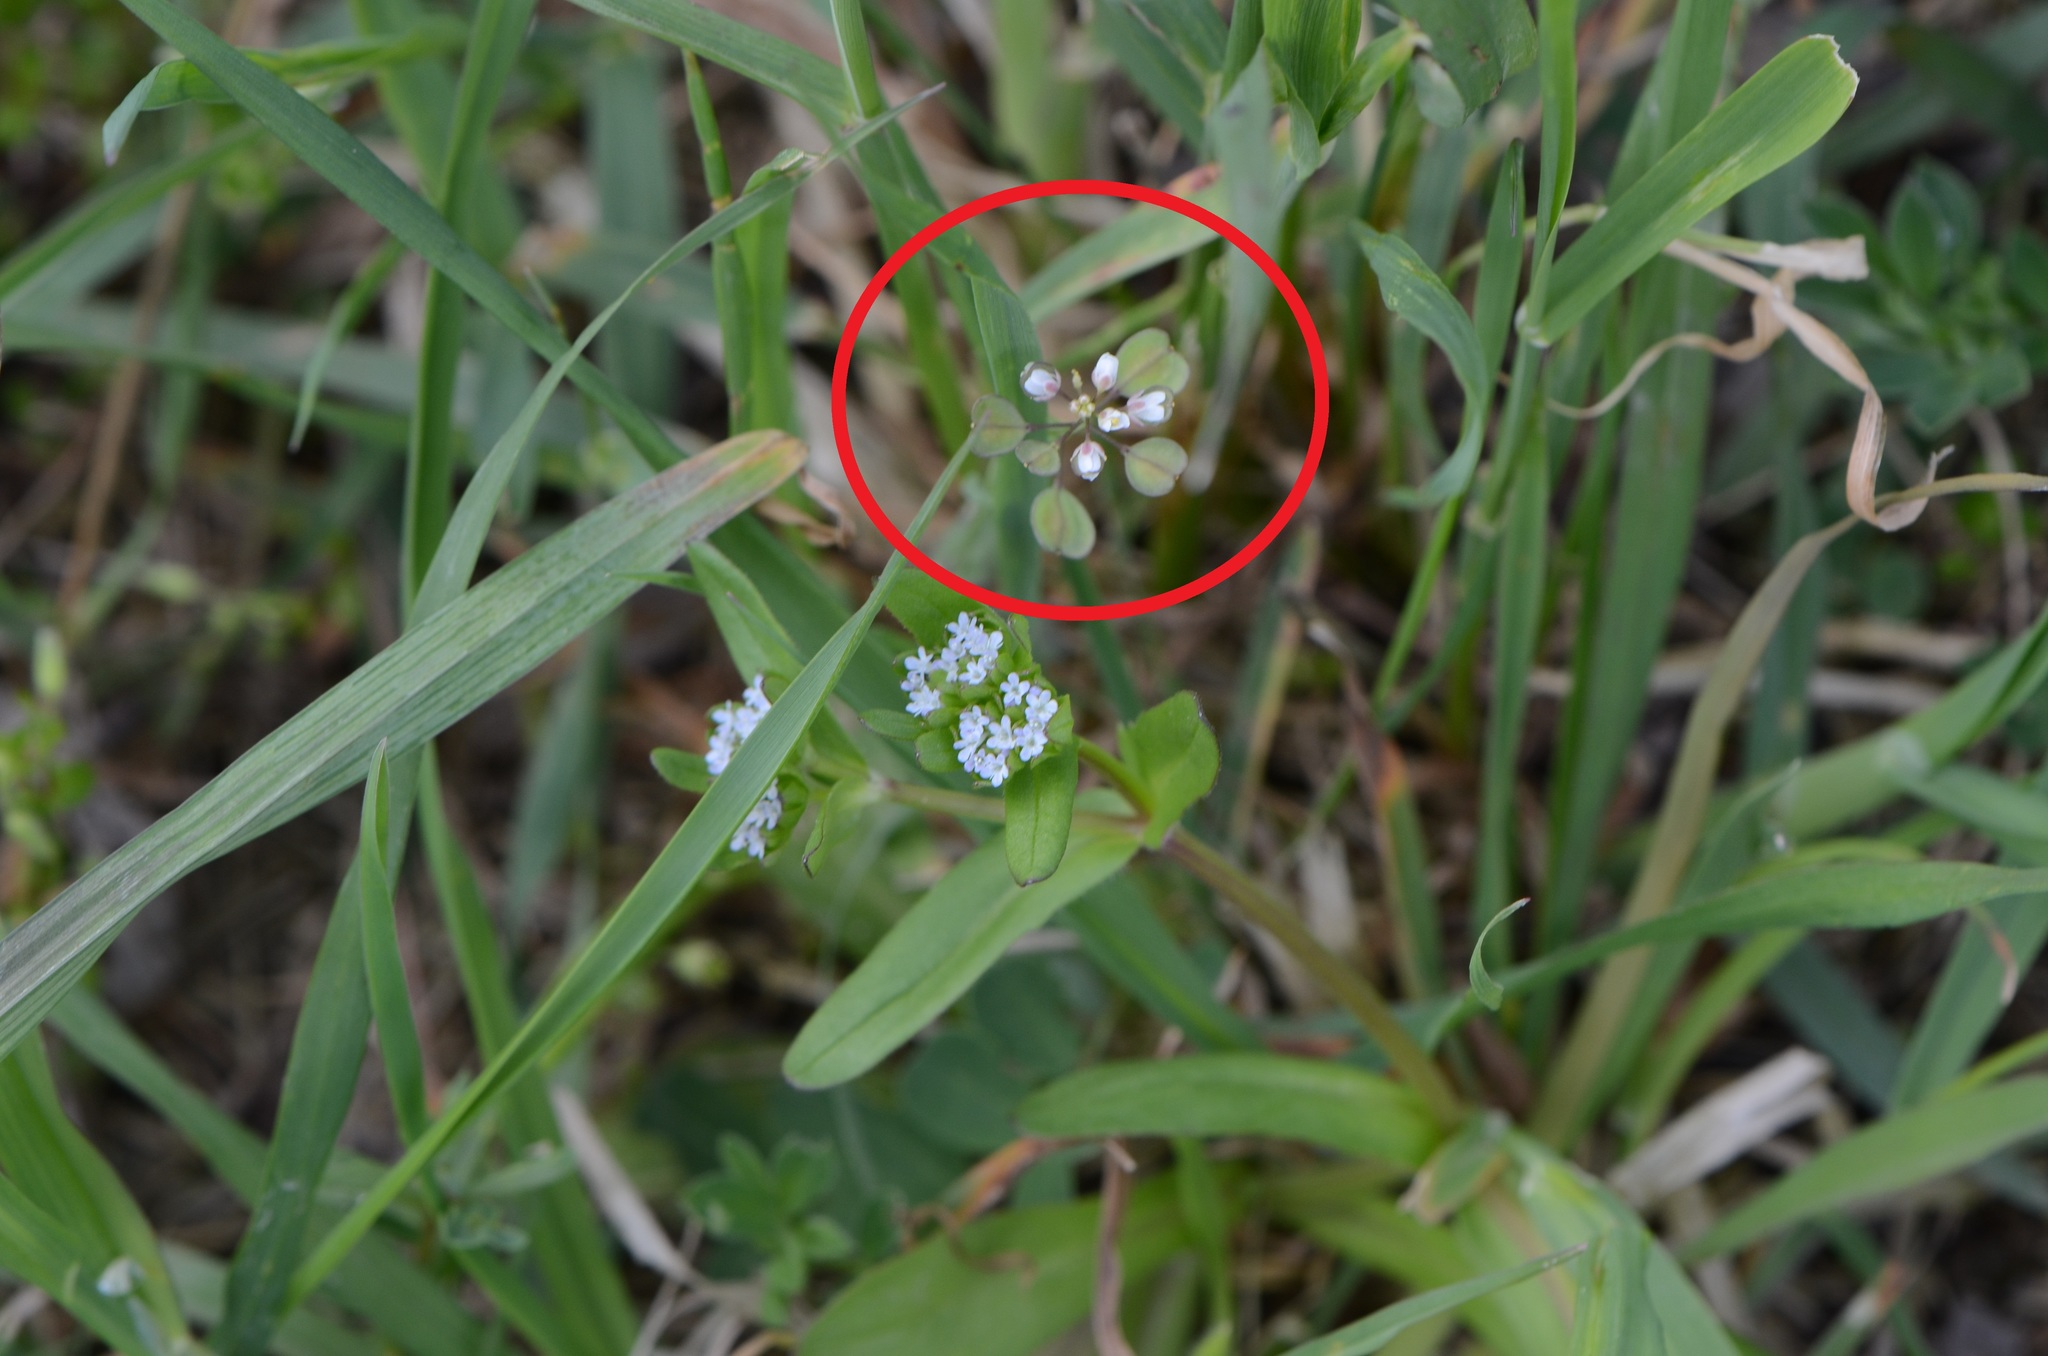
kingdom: Plantae
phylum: Tracheophyta
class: Magnoliopsida
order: Brassicales
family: Brassicaceae
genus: Noccaea
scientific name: Noccaea perfoliata
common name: Perfoliate pennycress
